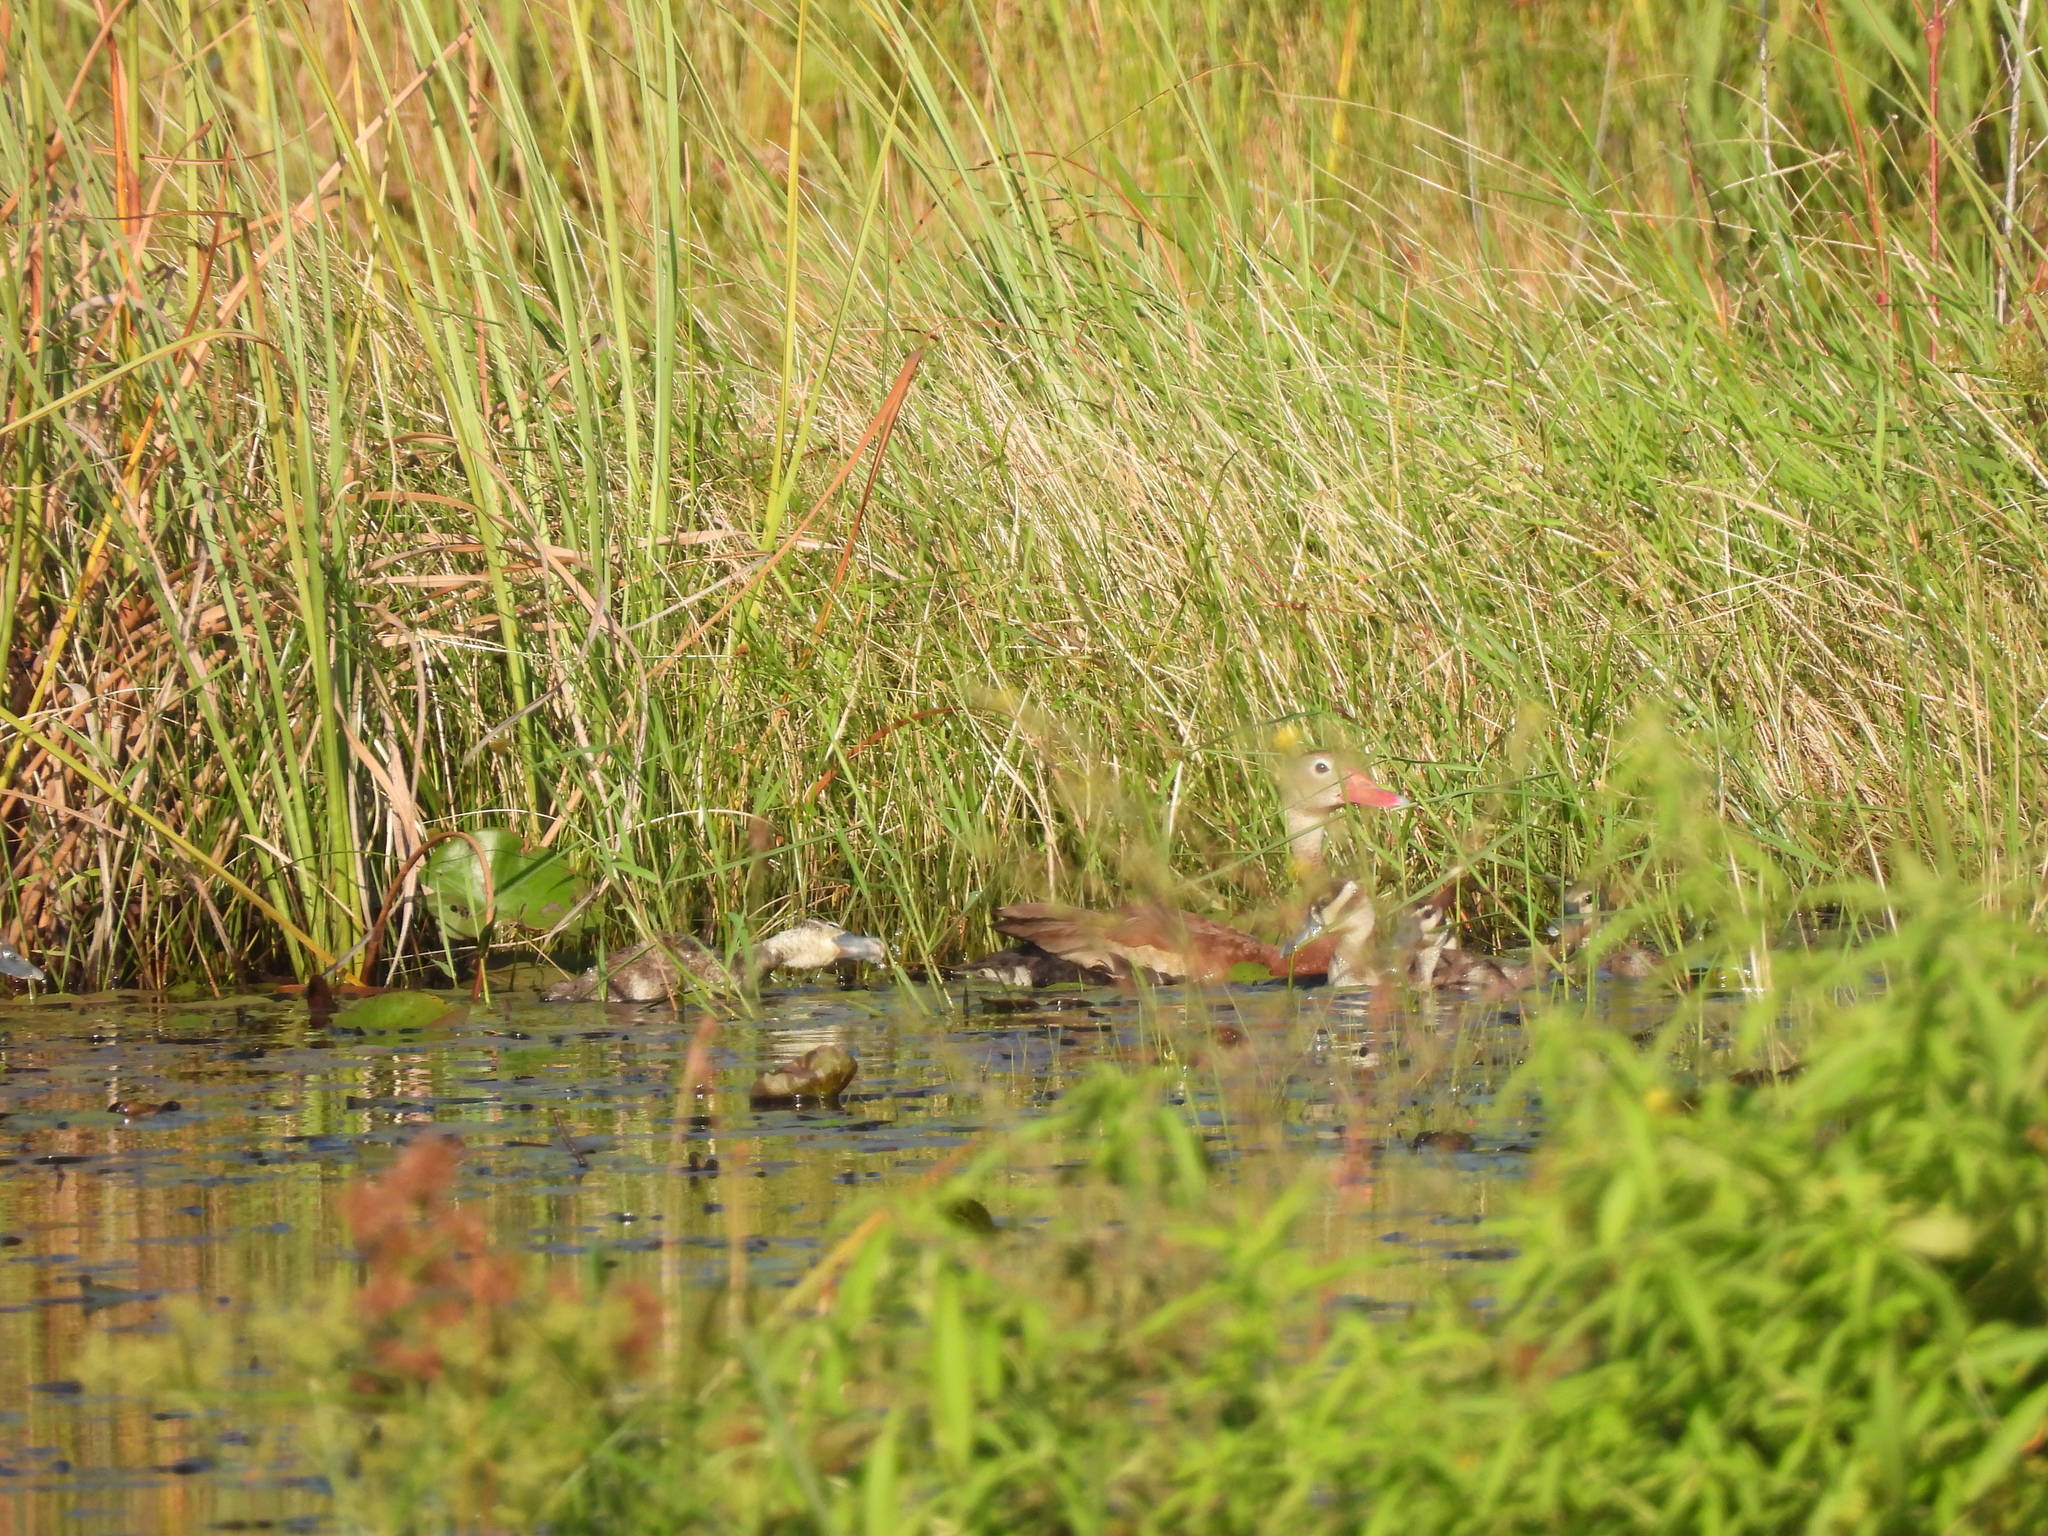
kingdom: Animalia
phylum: Chordata
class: Aves
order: Anseriformes
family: Anatidae
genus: Dendrocygna
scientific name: Dendrocygna autumnalis
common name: Black-bellied whistling duck
